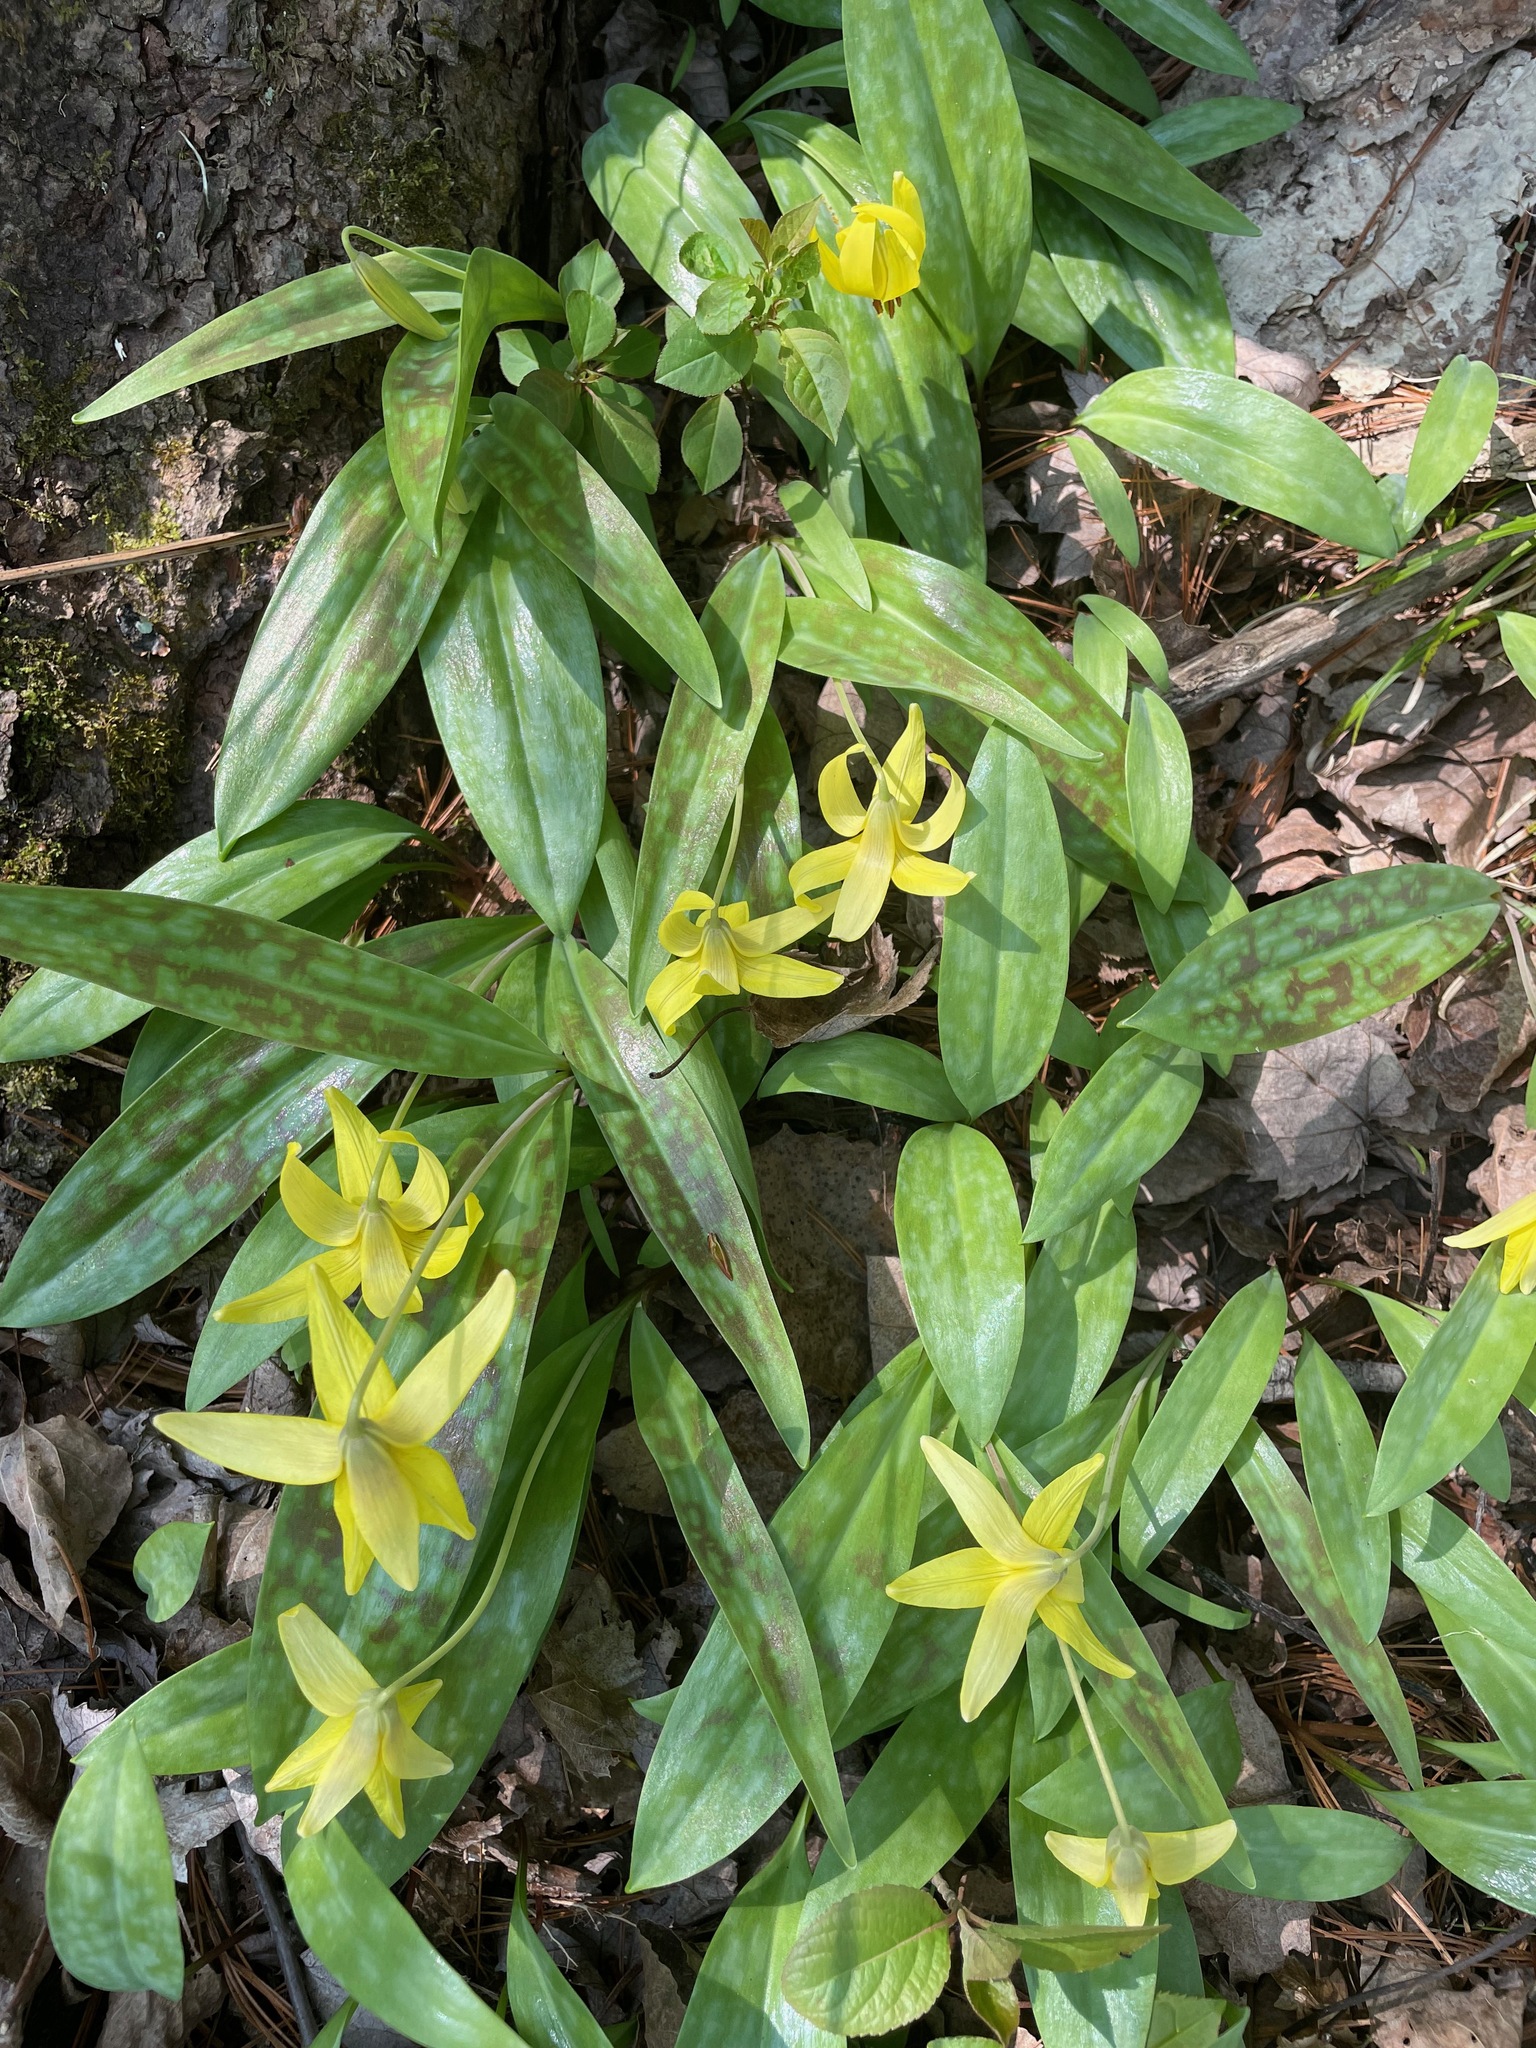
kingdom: Plantae
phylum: Tracheophyta
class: Liliopsida
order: Liliales
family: Liliaceae
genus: Erythronium
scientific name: Erythronium americanum
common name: Yellow adder's-tongue
